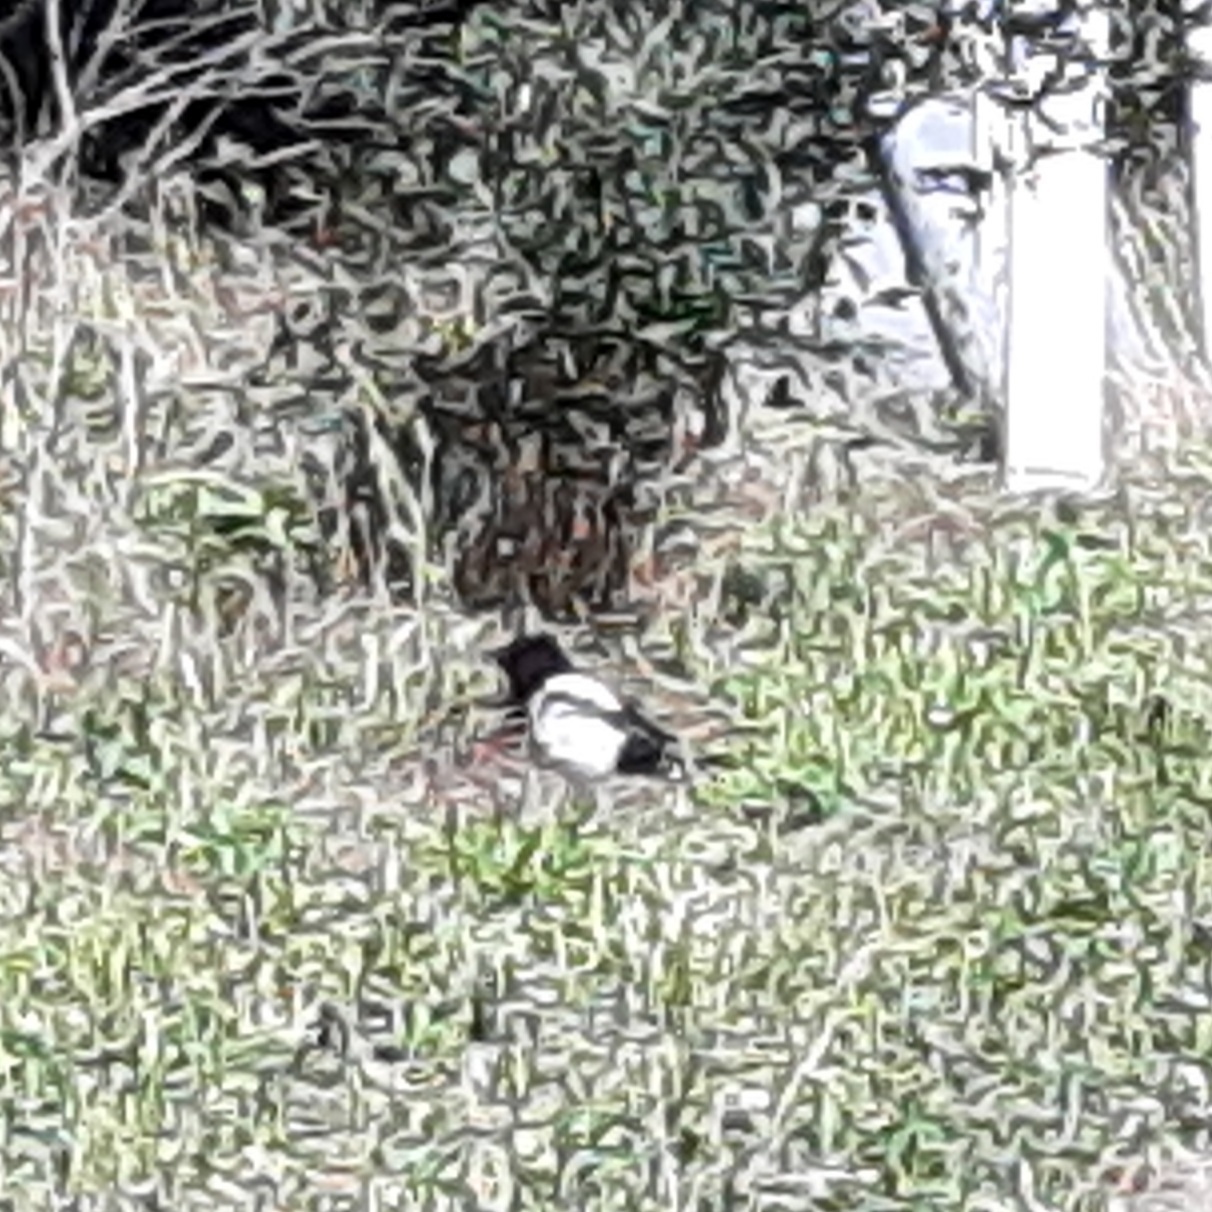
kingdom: Animalia
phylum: Chordata
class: Aves
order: Passeriformes
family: Corvidae
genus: Pica
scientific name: Pica pica
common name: Eurasian magpie
